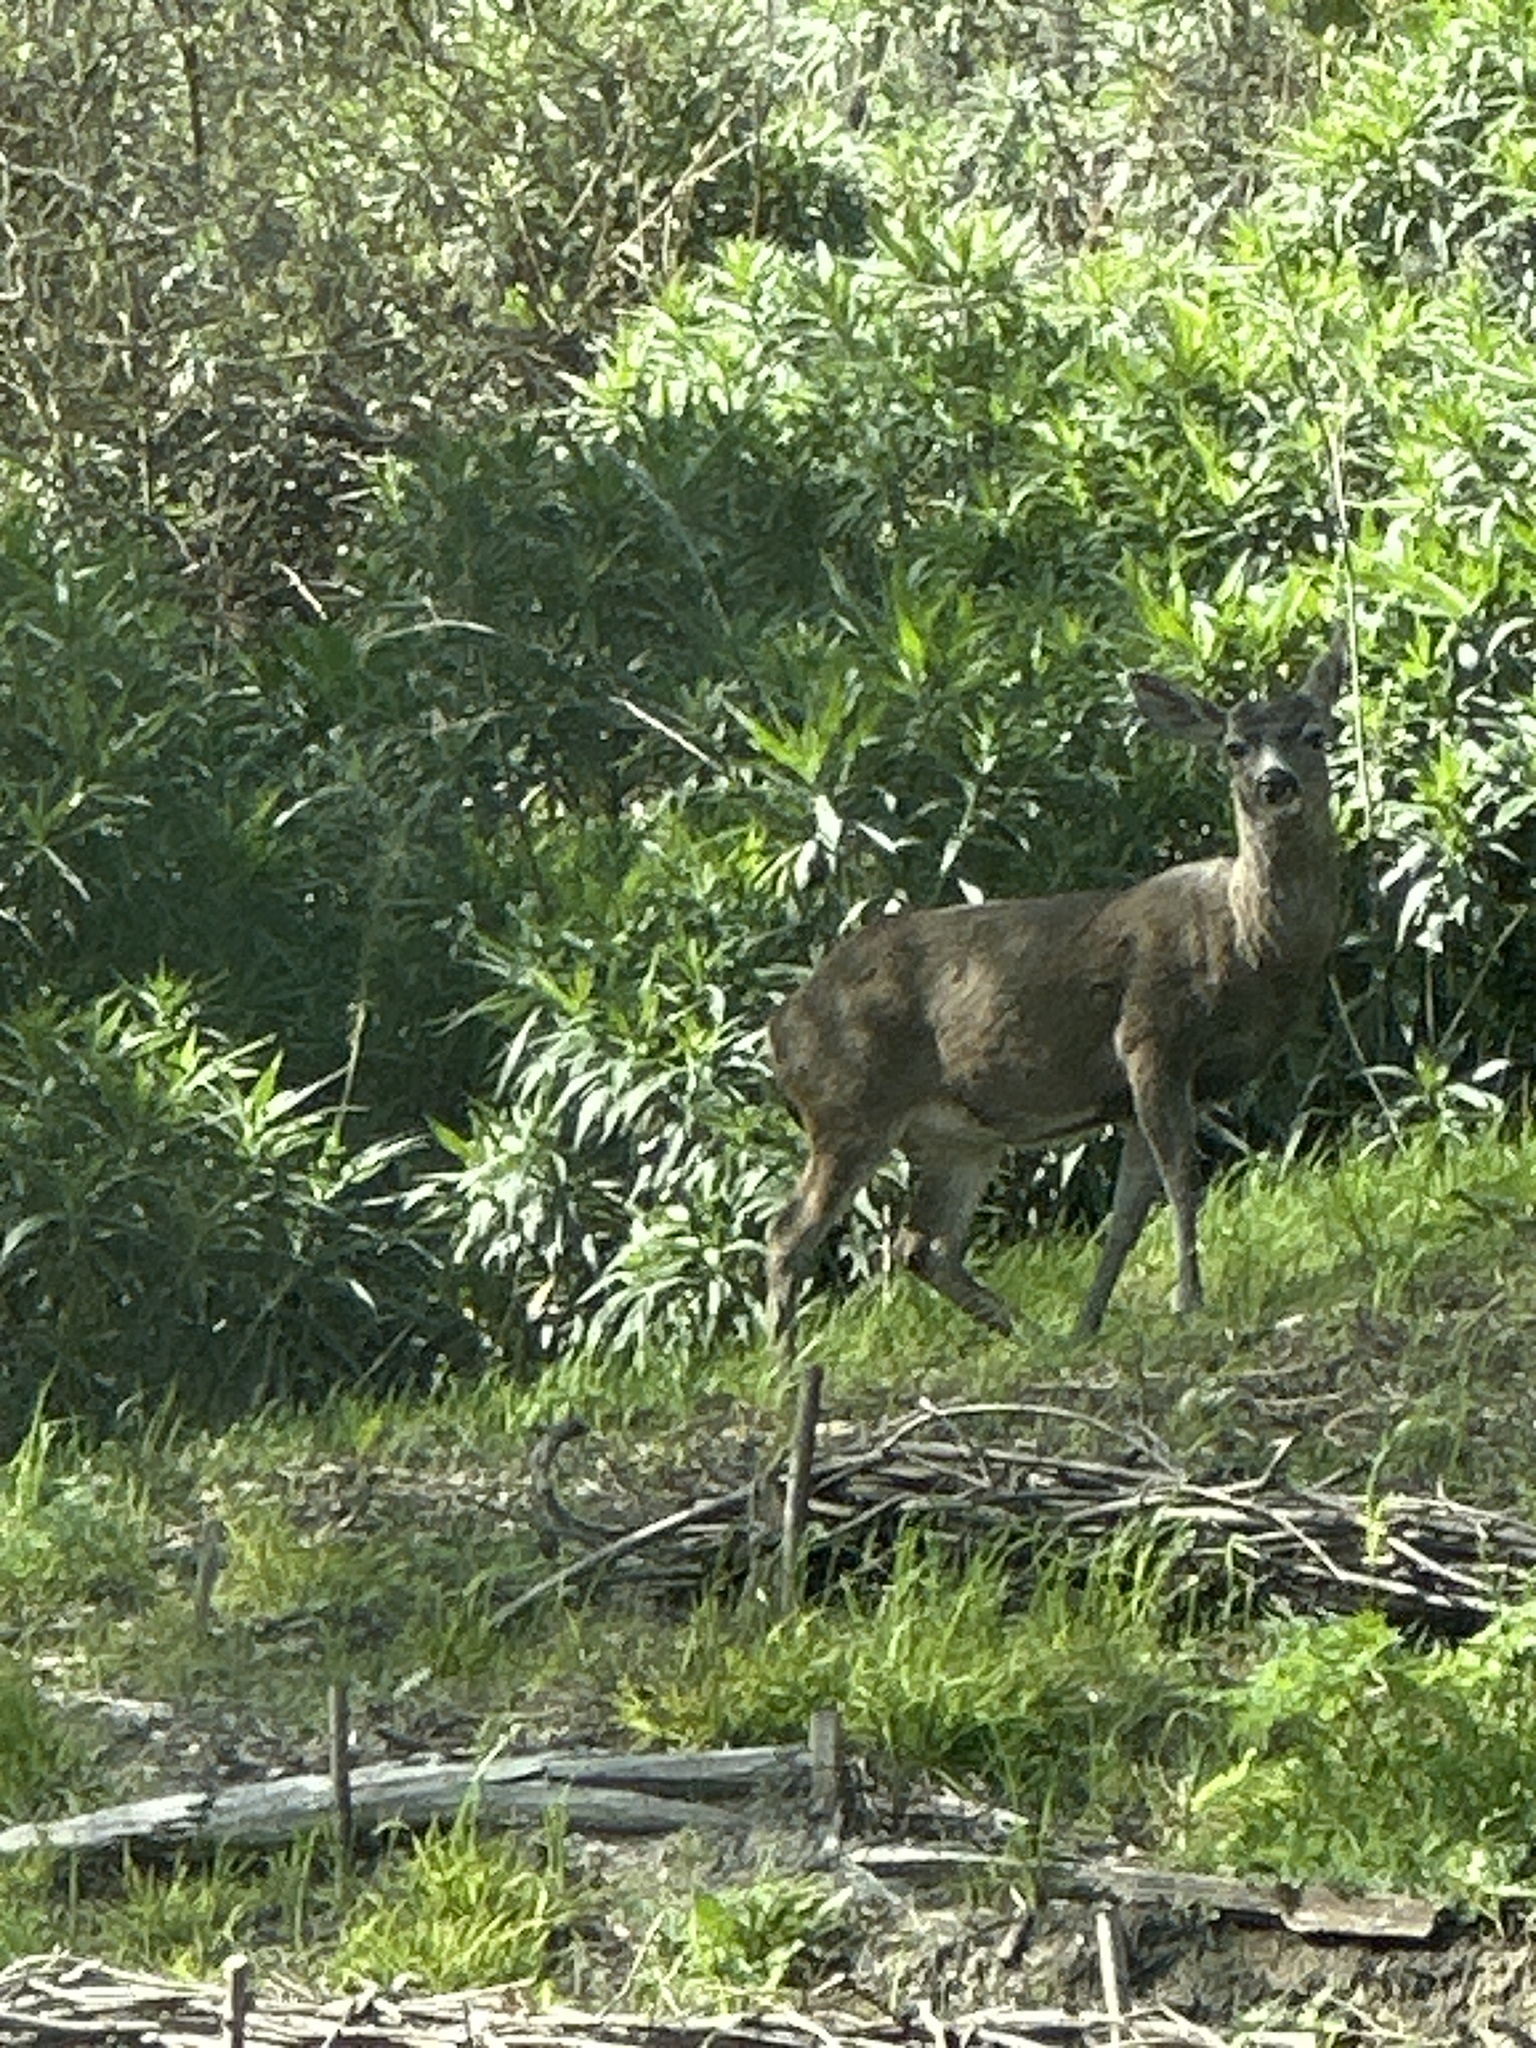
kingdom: Animalia
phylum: Chordata
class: Mammalia
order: Artiodactyla
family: Cervidae
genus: Odocoileus
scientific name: Odocoileus hemionus
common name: Mule deer
